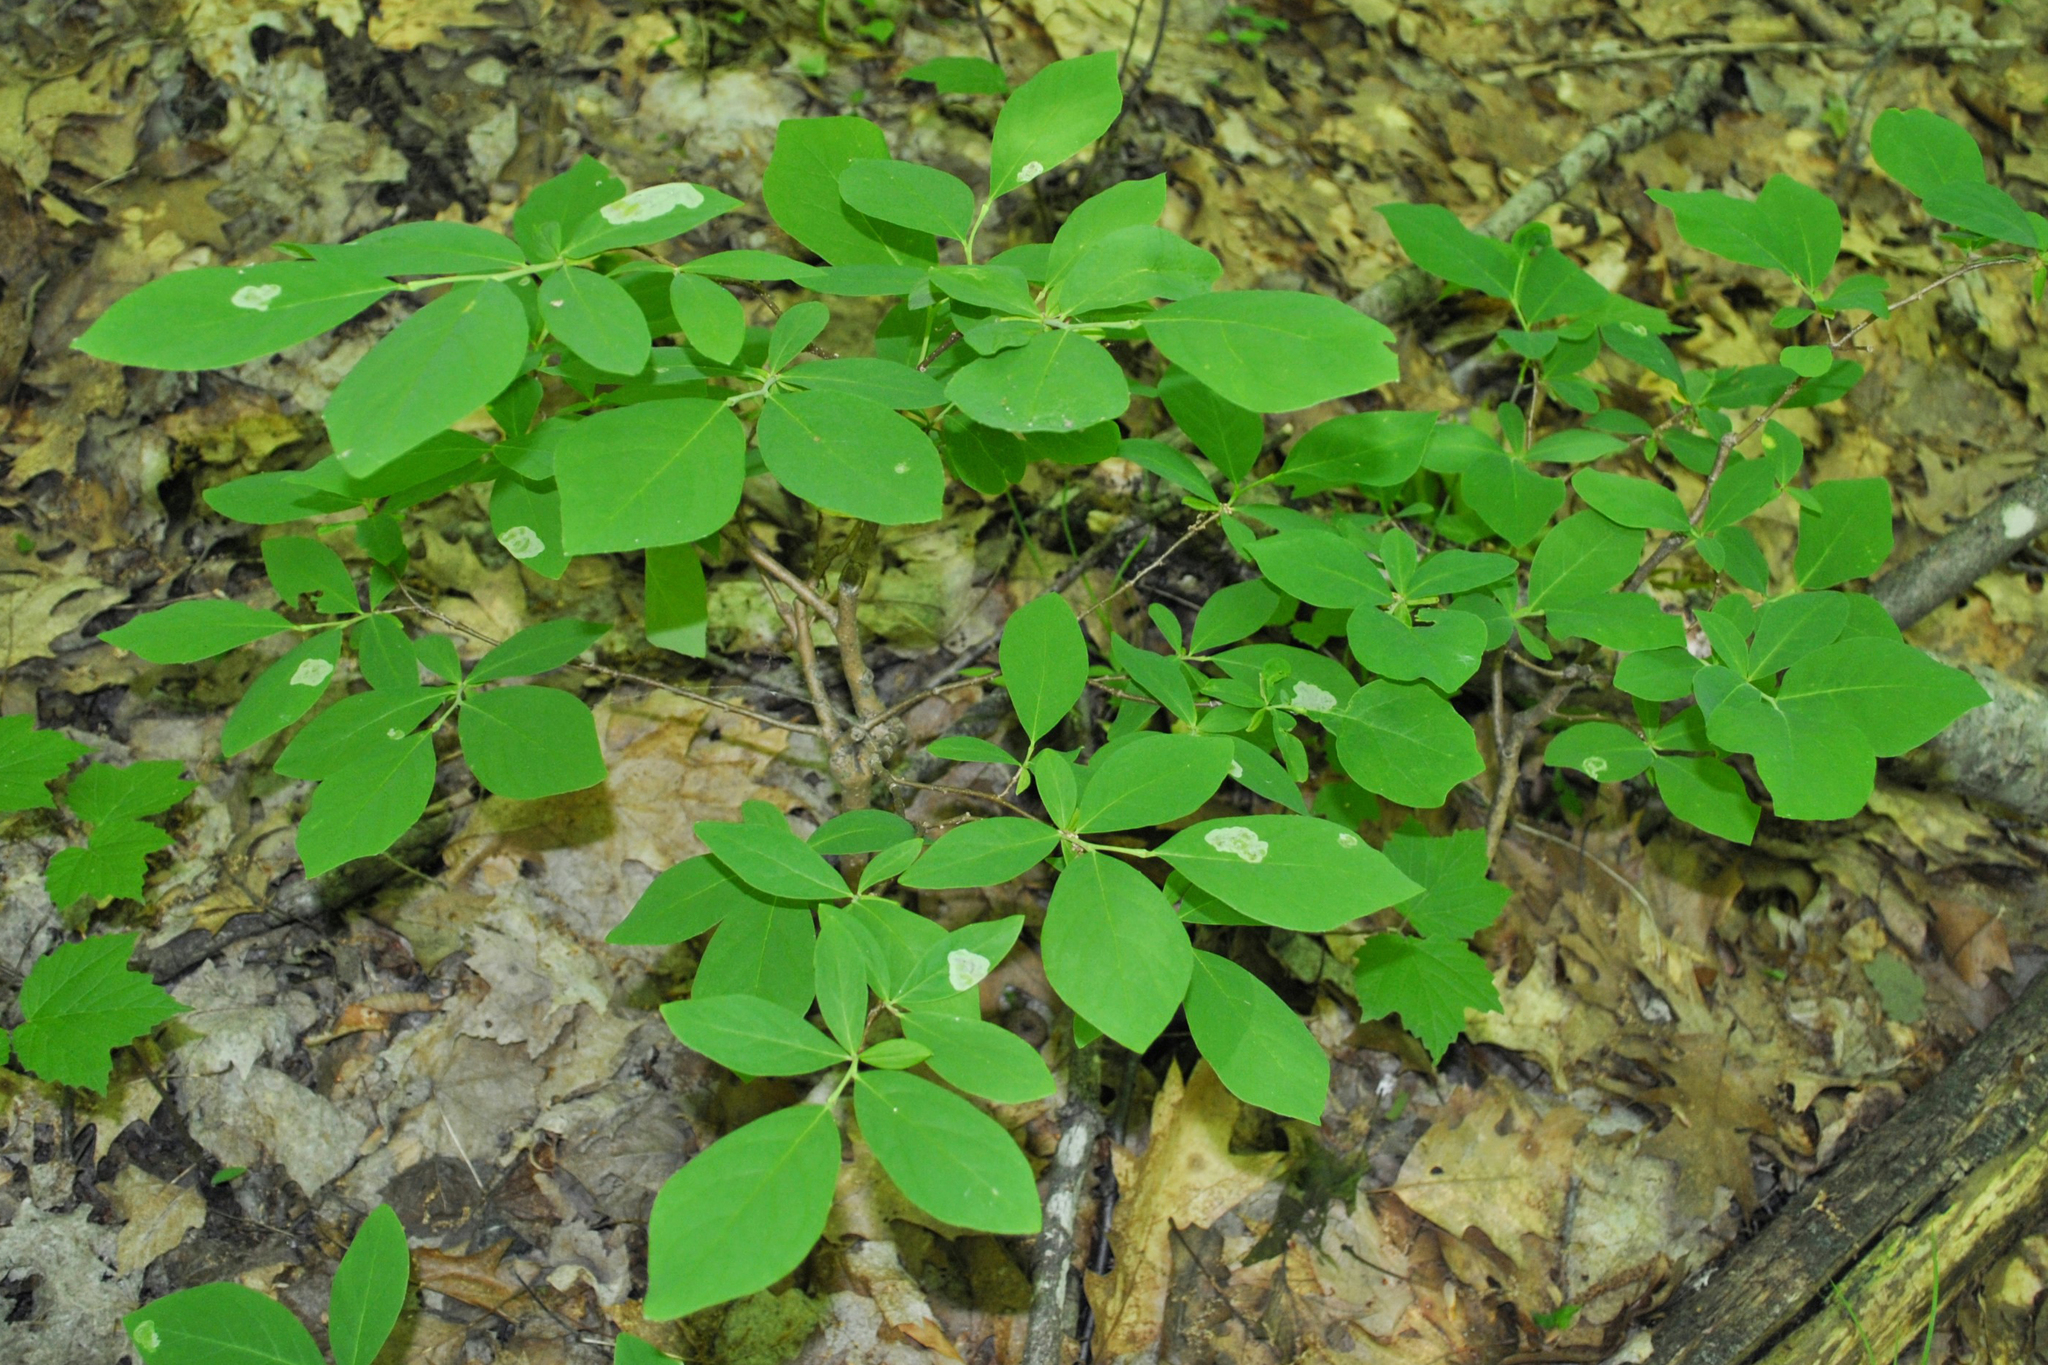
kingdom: Plantae
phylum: Tracheophyta
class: Magnoliopsida
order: Malvales
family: Thymelaeaceae
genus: Dirca
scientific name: Dirca palustris
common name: Leatherwood
